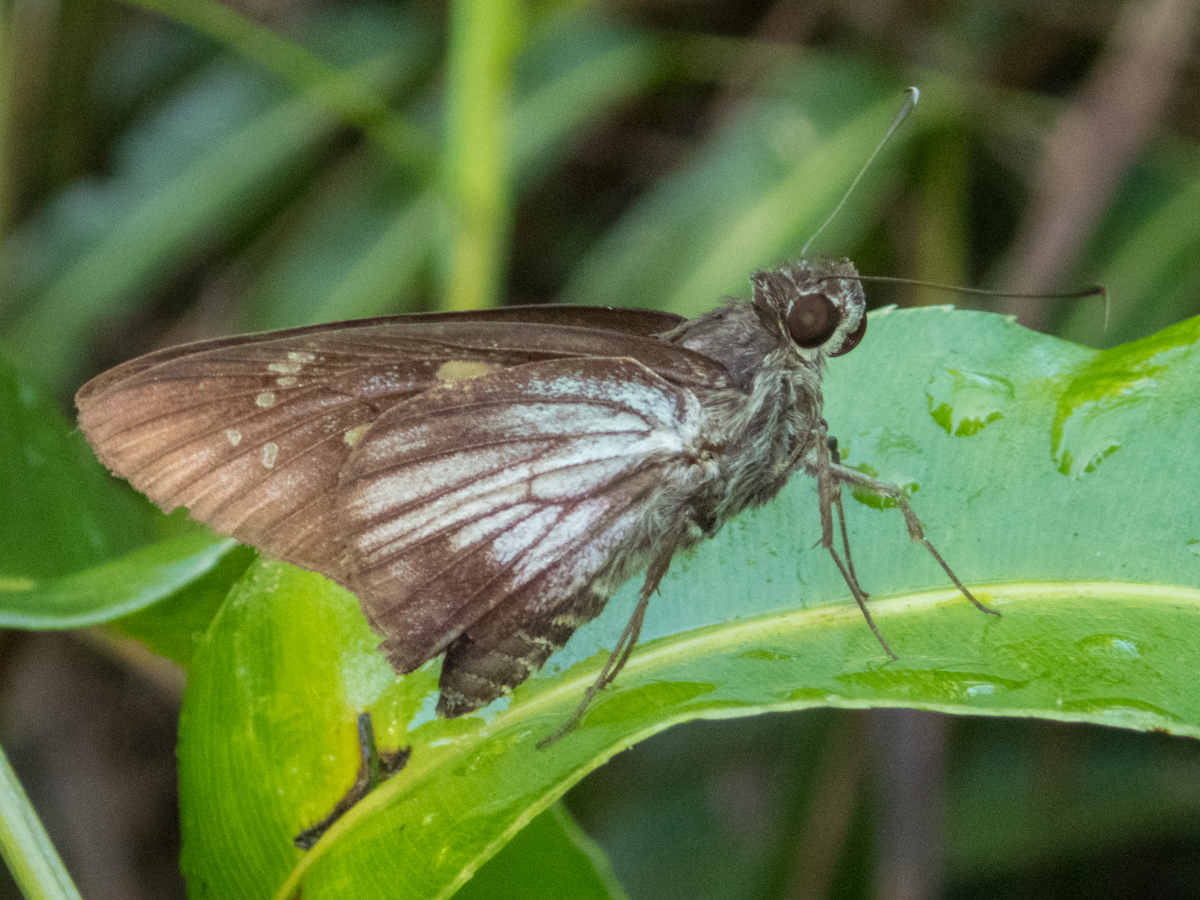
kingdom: Animalia
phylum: Arthropoda
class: Insecta
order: Lepidoptera
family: Hesperiidae
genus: Unkana
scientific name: Unkana ambasa
